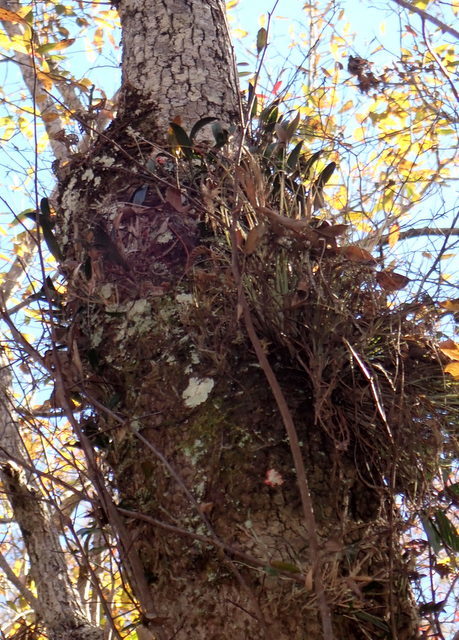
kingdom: Plantae
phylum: Tracheophyta
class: Liliopsida
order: Asparagales
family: Orchidaceae
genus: Epidendrum
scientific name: Epidendrum conopseum
